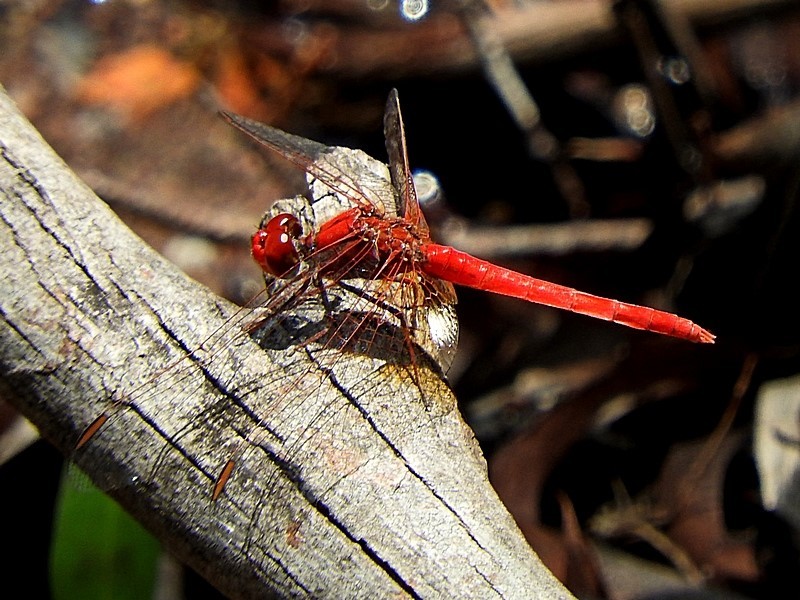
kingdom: Animalia
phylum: Arthropoda
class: Insecta
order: Odonata
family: Libellulidae
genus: Diplacodes
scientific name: Diplacodes haematodes
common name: Scarlet percher
